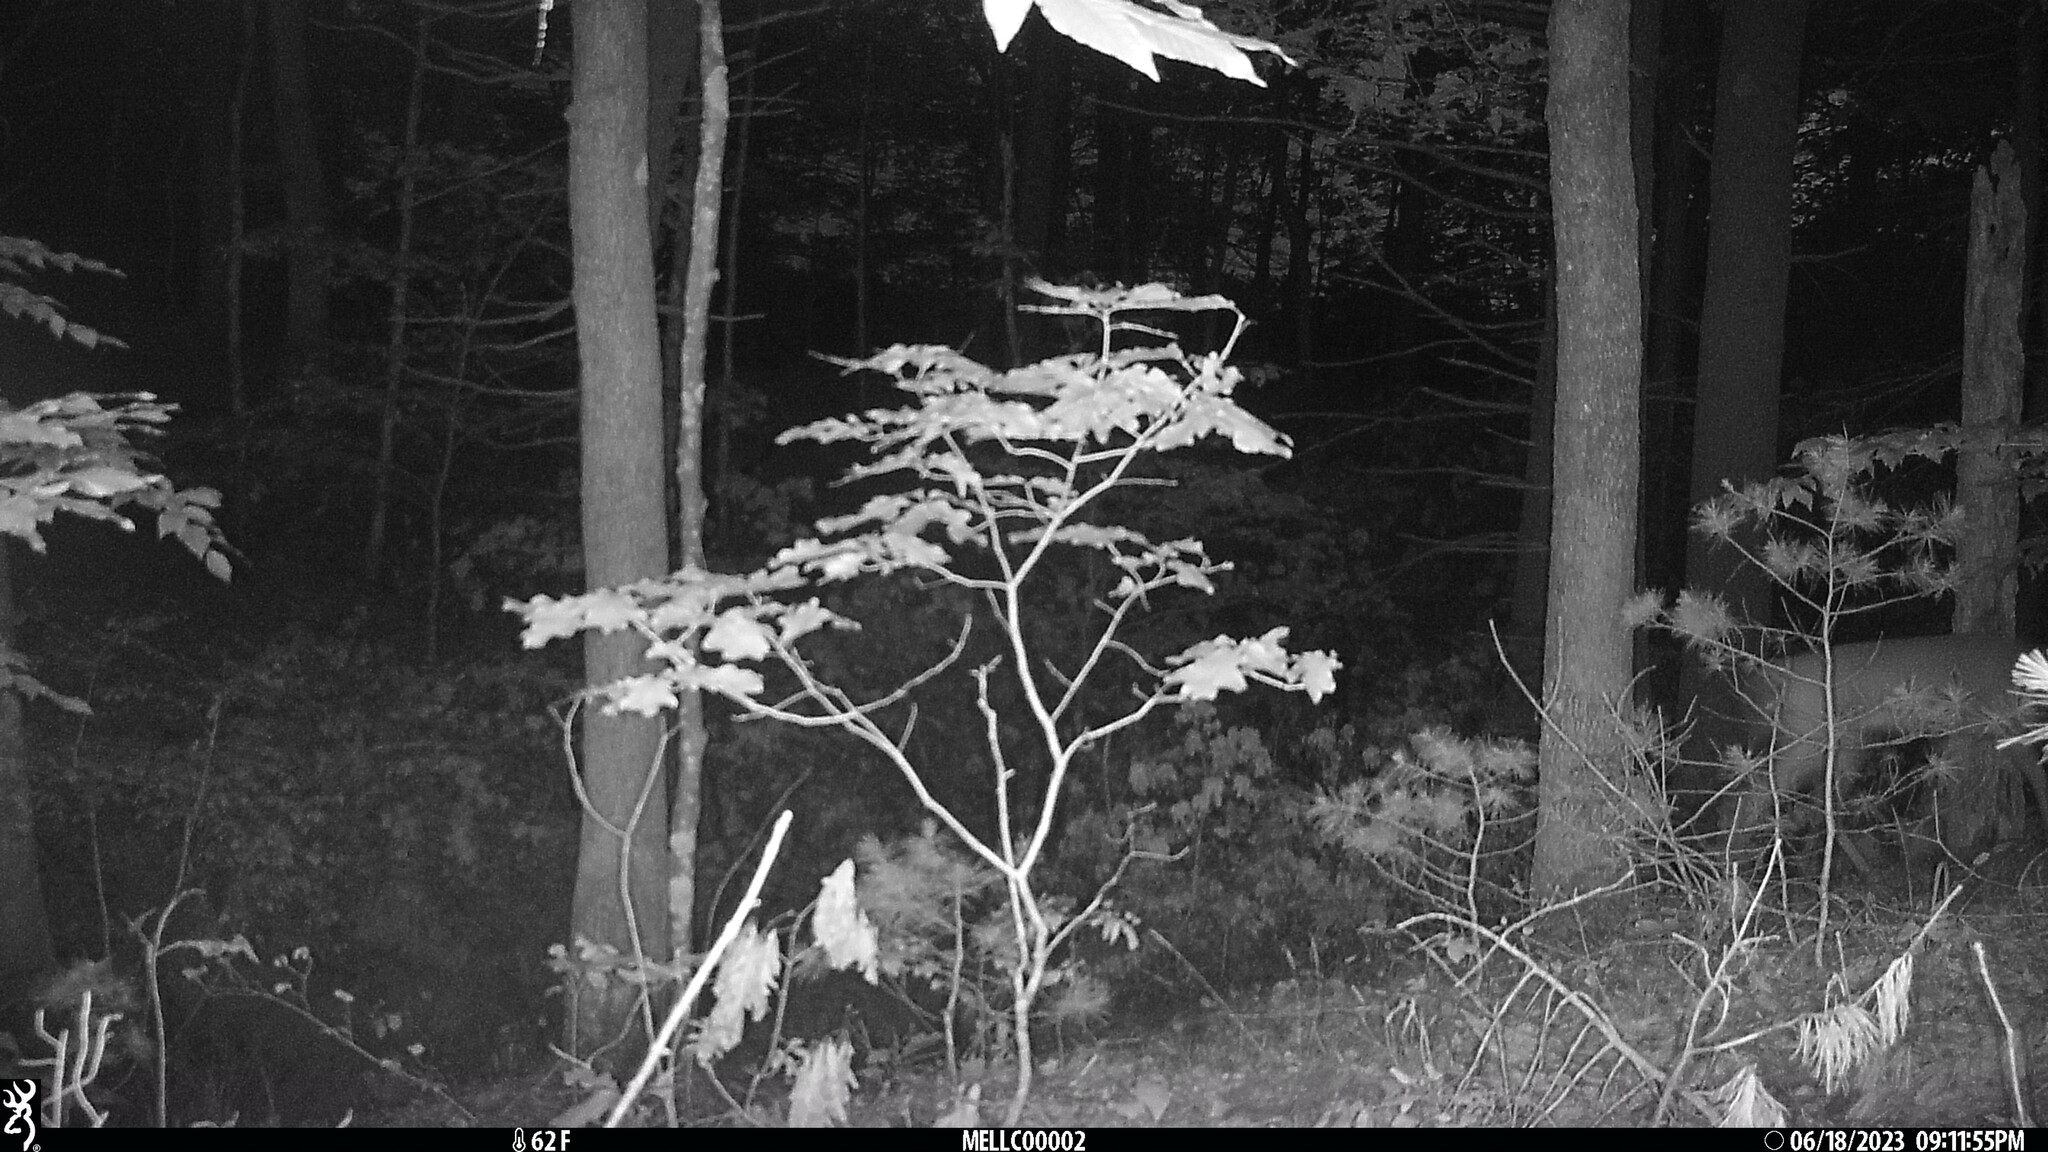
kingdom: Animalia
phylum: Chordata
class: Mammalia
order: Artiodactyla
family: Cervidae
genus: Odocoileus
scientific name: Odocoileus virginianus
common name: White-tailed deer
